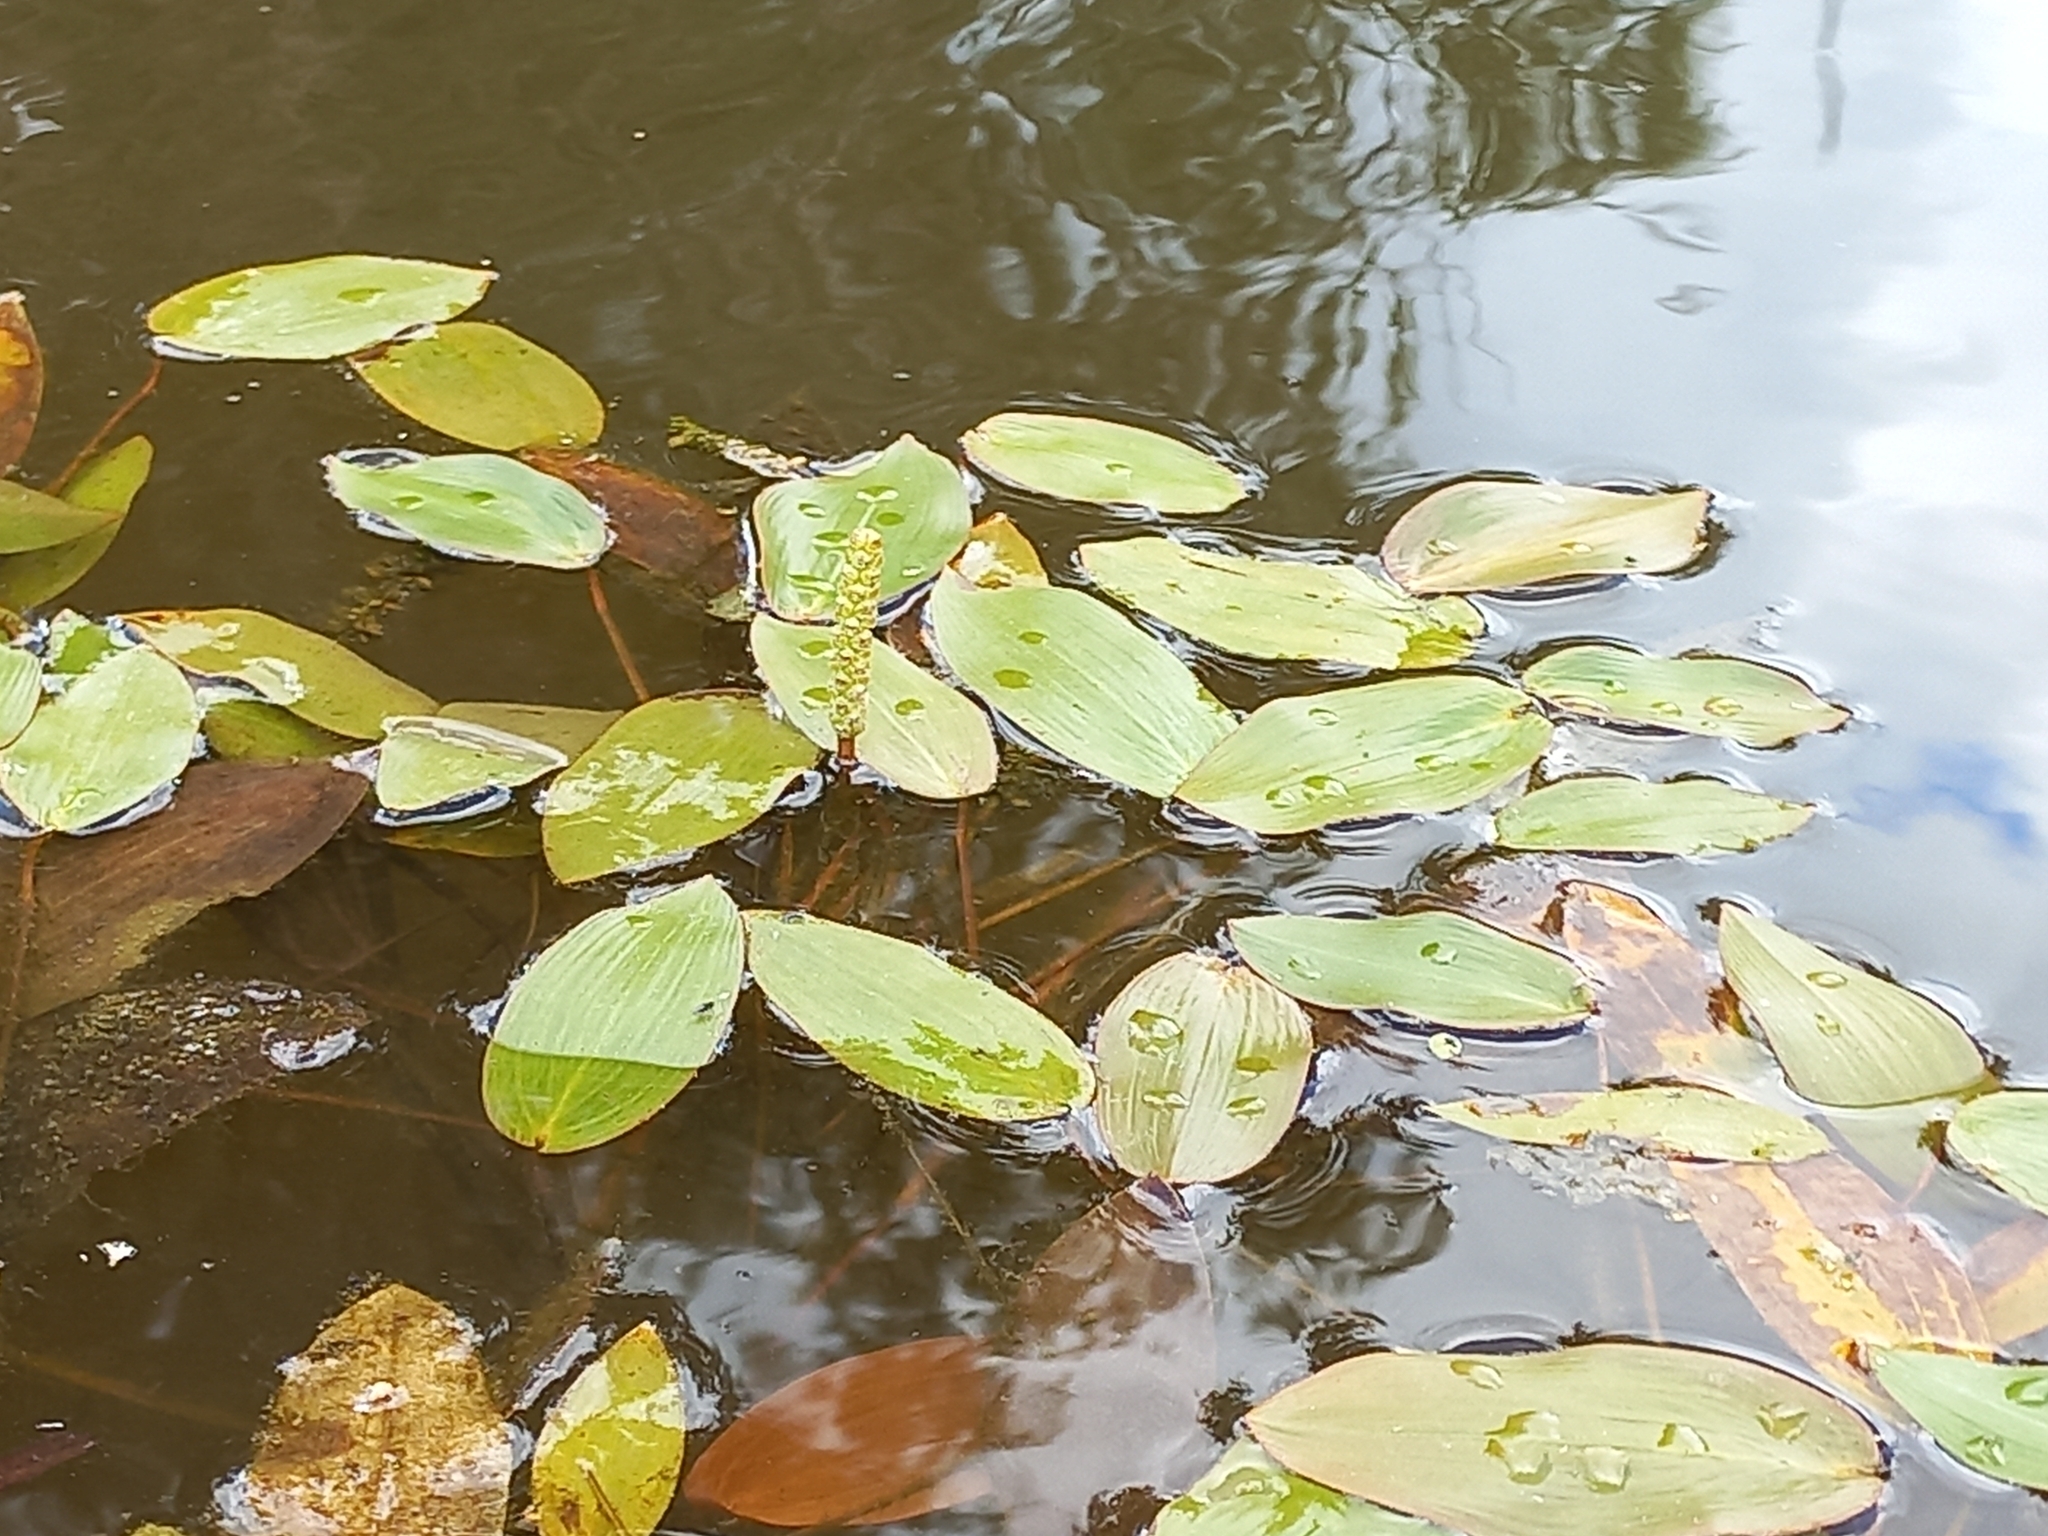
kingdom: Plantae
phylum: Tracheophyta
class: Liliopsida
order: Alismatales
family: Potamogetonaceae
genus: Potamogeton
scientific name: Potamogeton natans
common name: Broad-leaved pondweed
